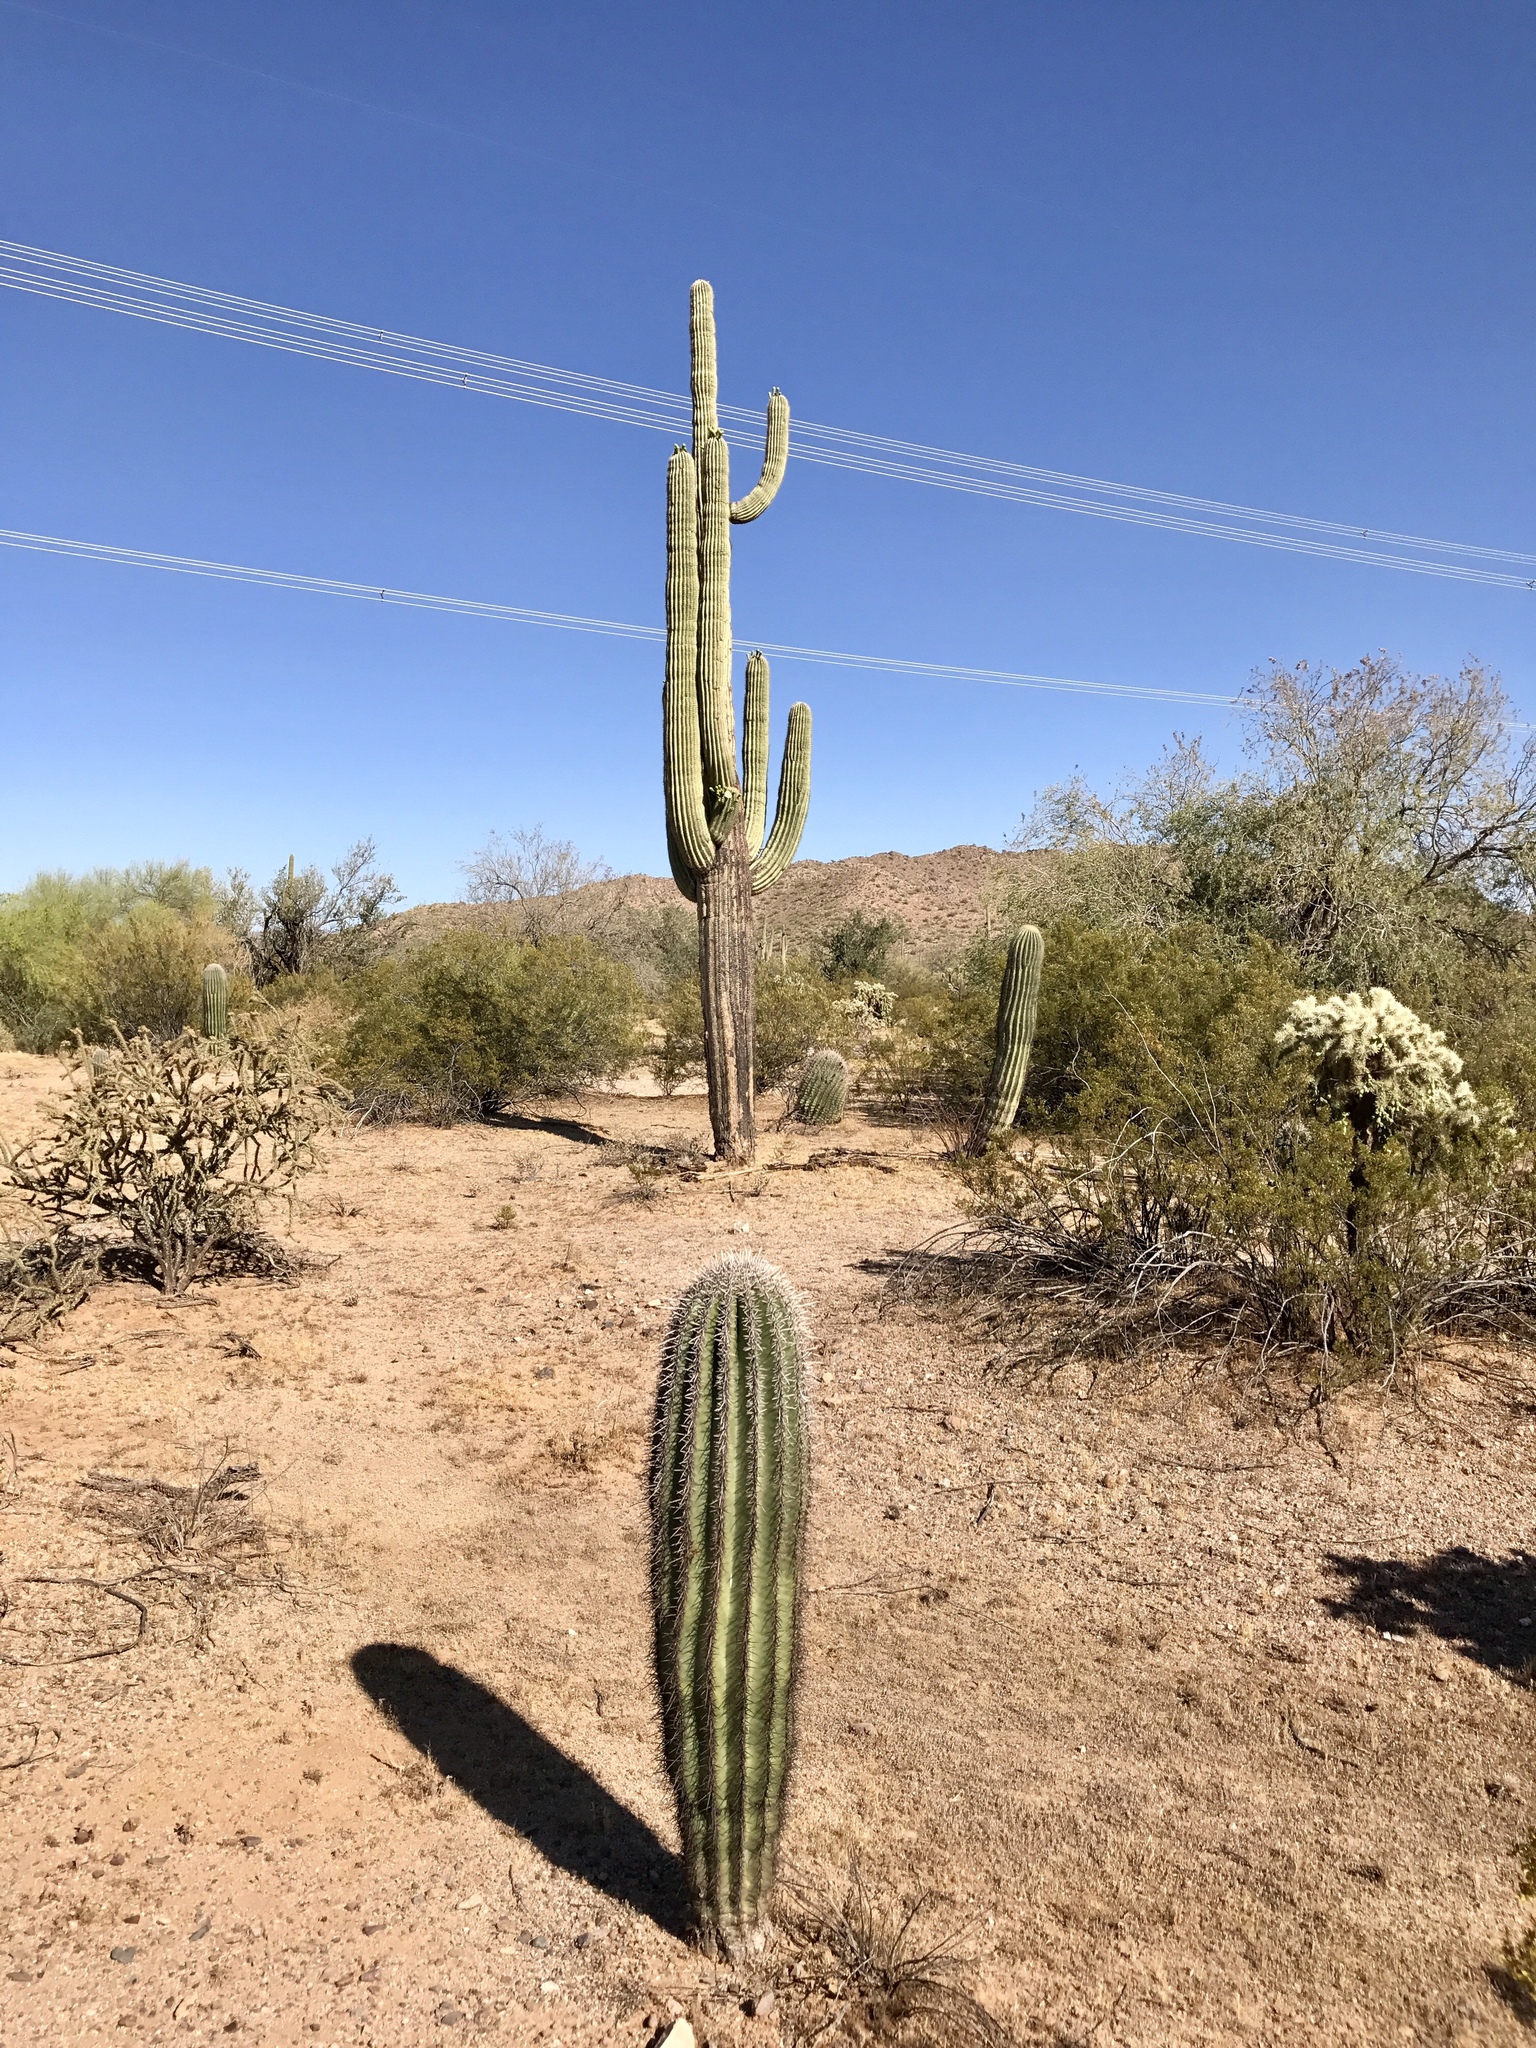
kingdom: Plantae
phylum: Tracheophyta
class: Magnoliopsida
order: Caryophyllales
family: Cactaceae
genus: Carnegiea
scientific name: Carnegiea gigantea
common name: Saguaro
